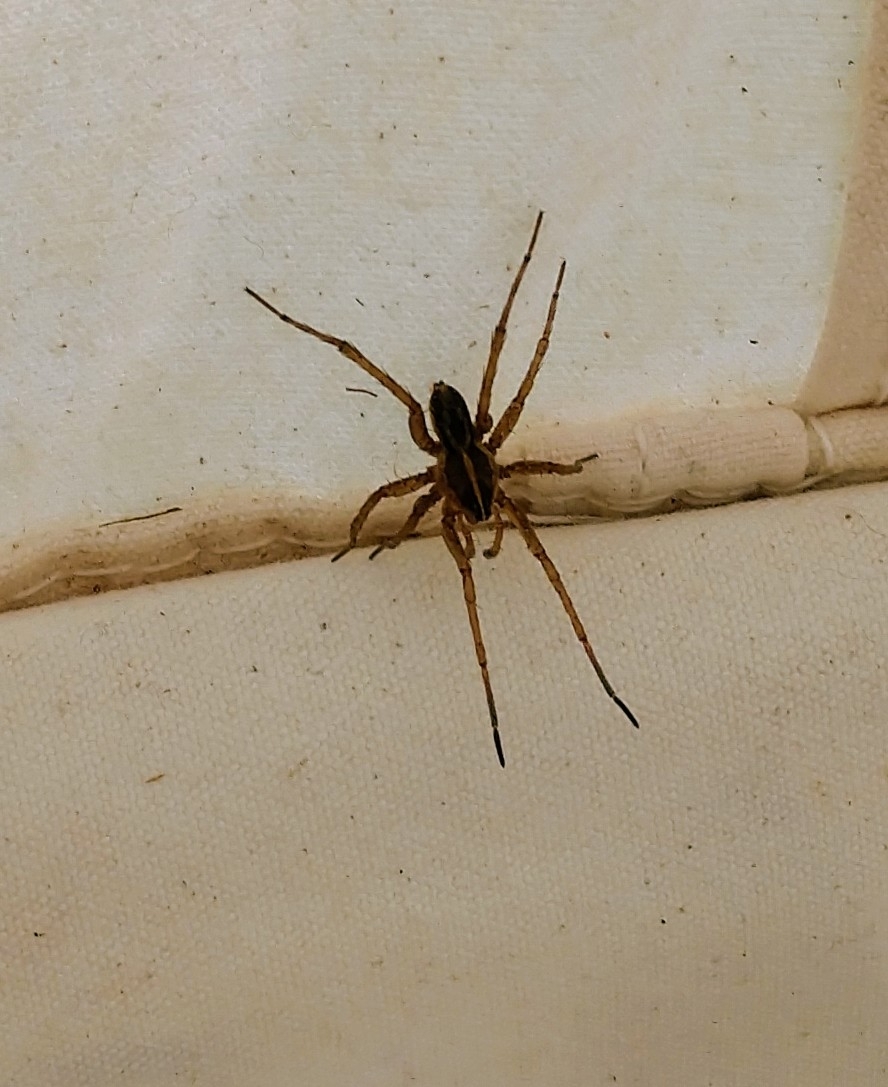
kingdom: Animalia
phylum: Arthropoda
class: Arachnida
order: Araneae
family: Lycosidae
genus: Tigrosa
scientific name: Tigrosa helluo
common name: Wetland giant wolf spider
